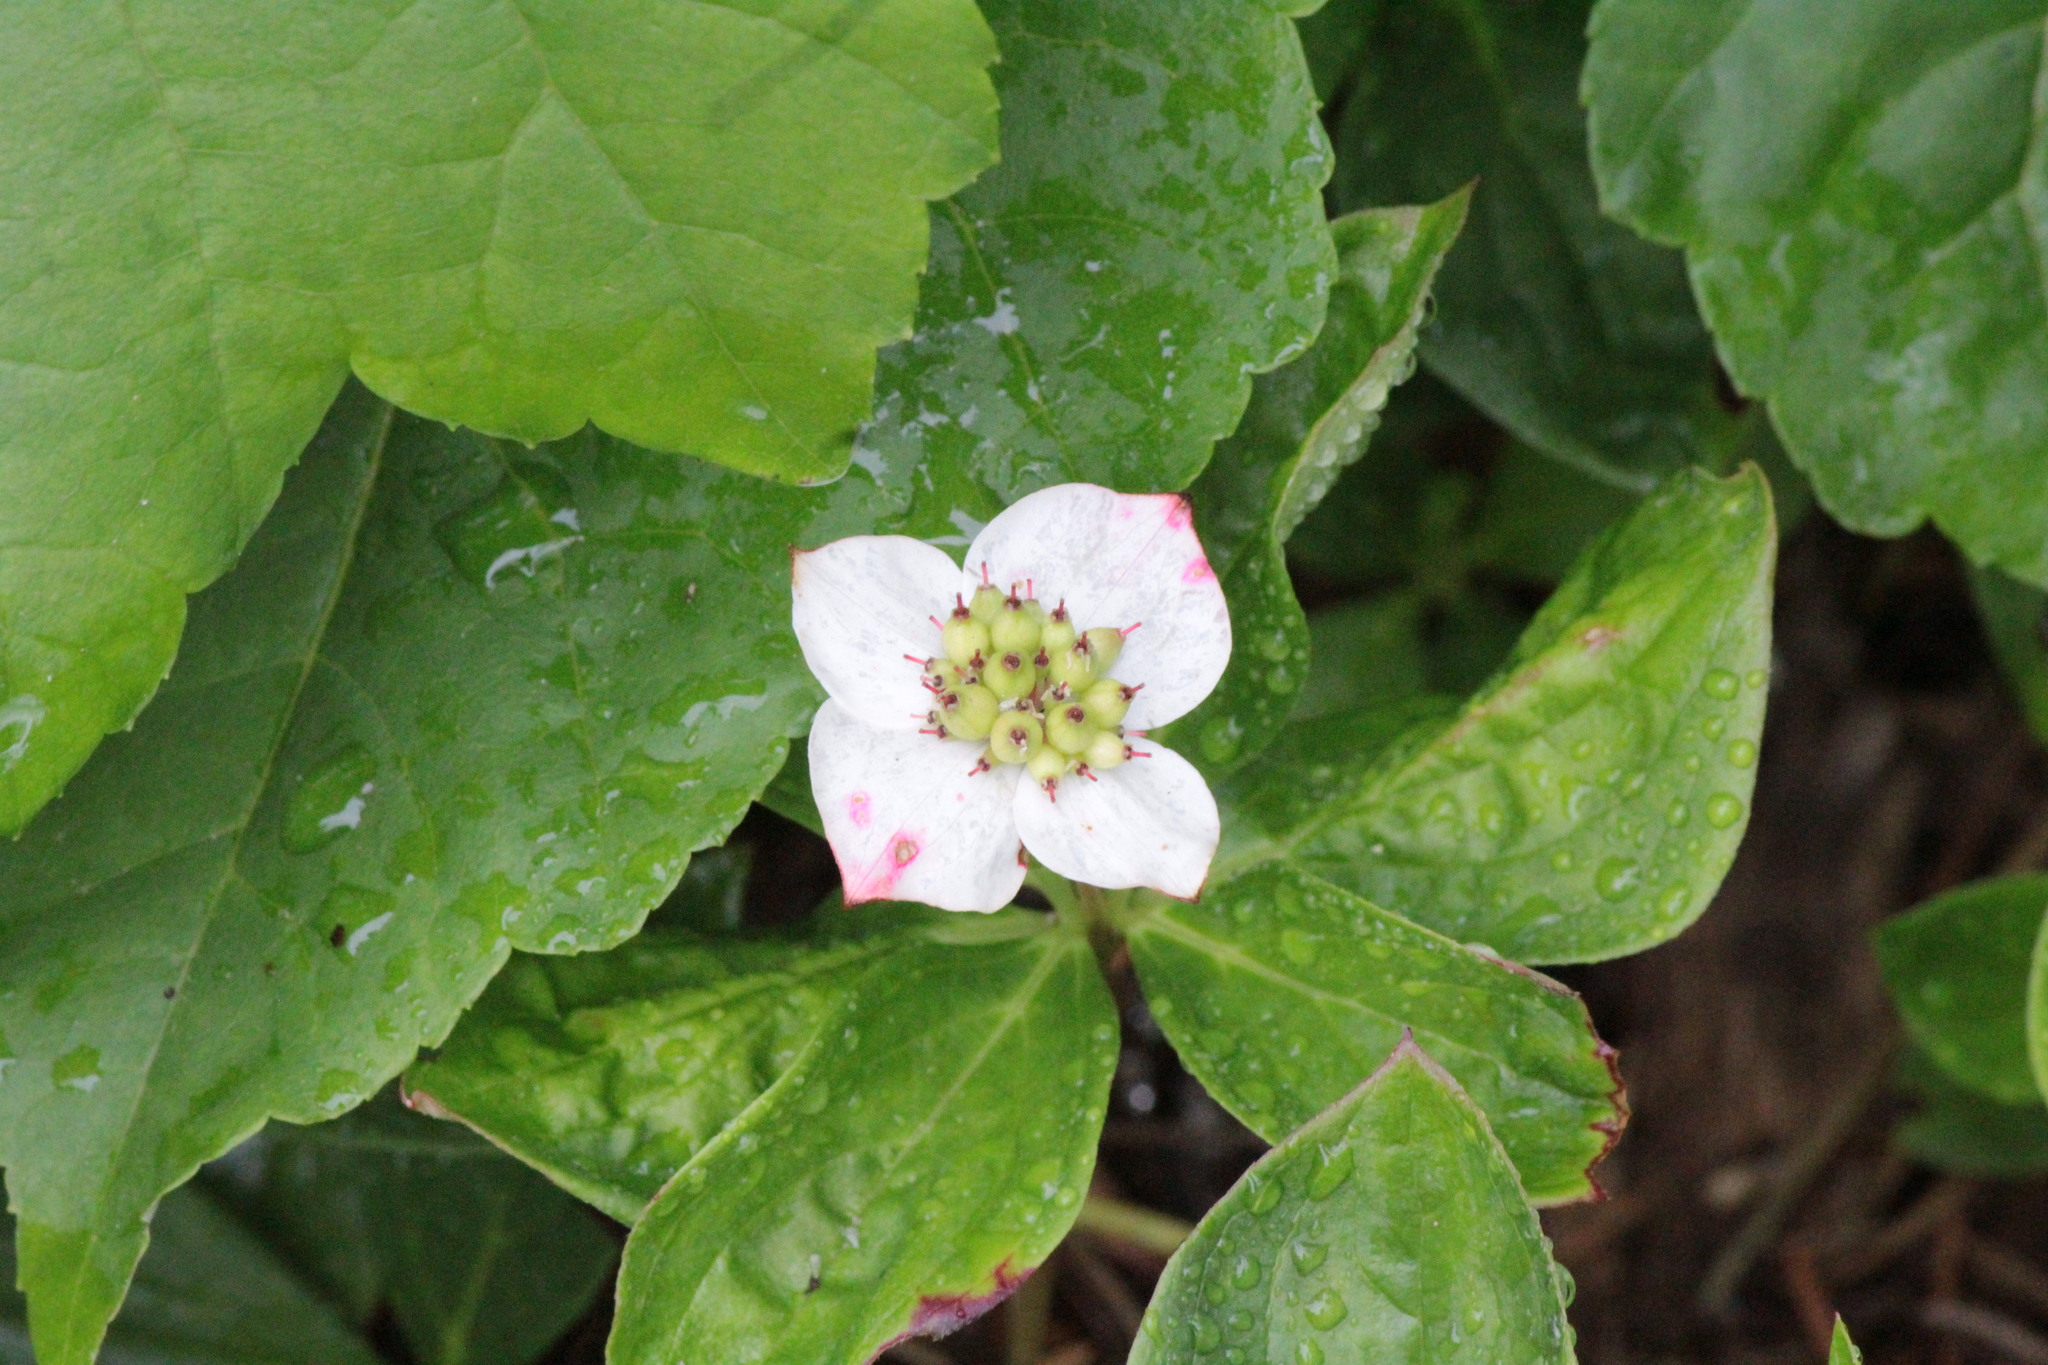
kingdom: Plantae
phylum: Tracheophyta
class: Magnoliopsida
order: Cornales
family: Cornaceae
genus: Cornus
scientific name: Cornus canadensis
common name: Creeping dogwood
